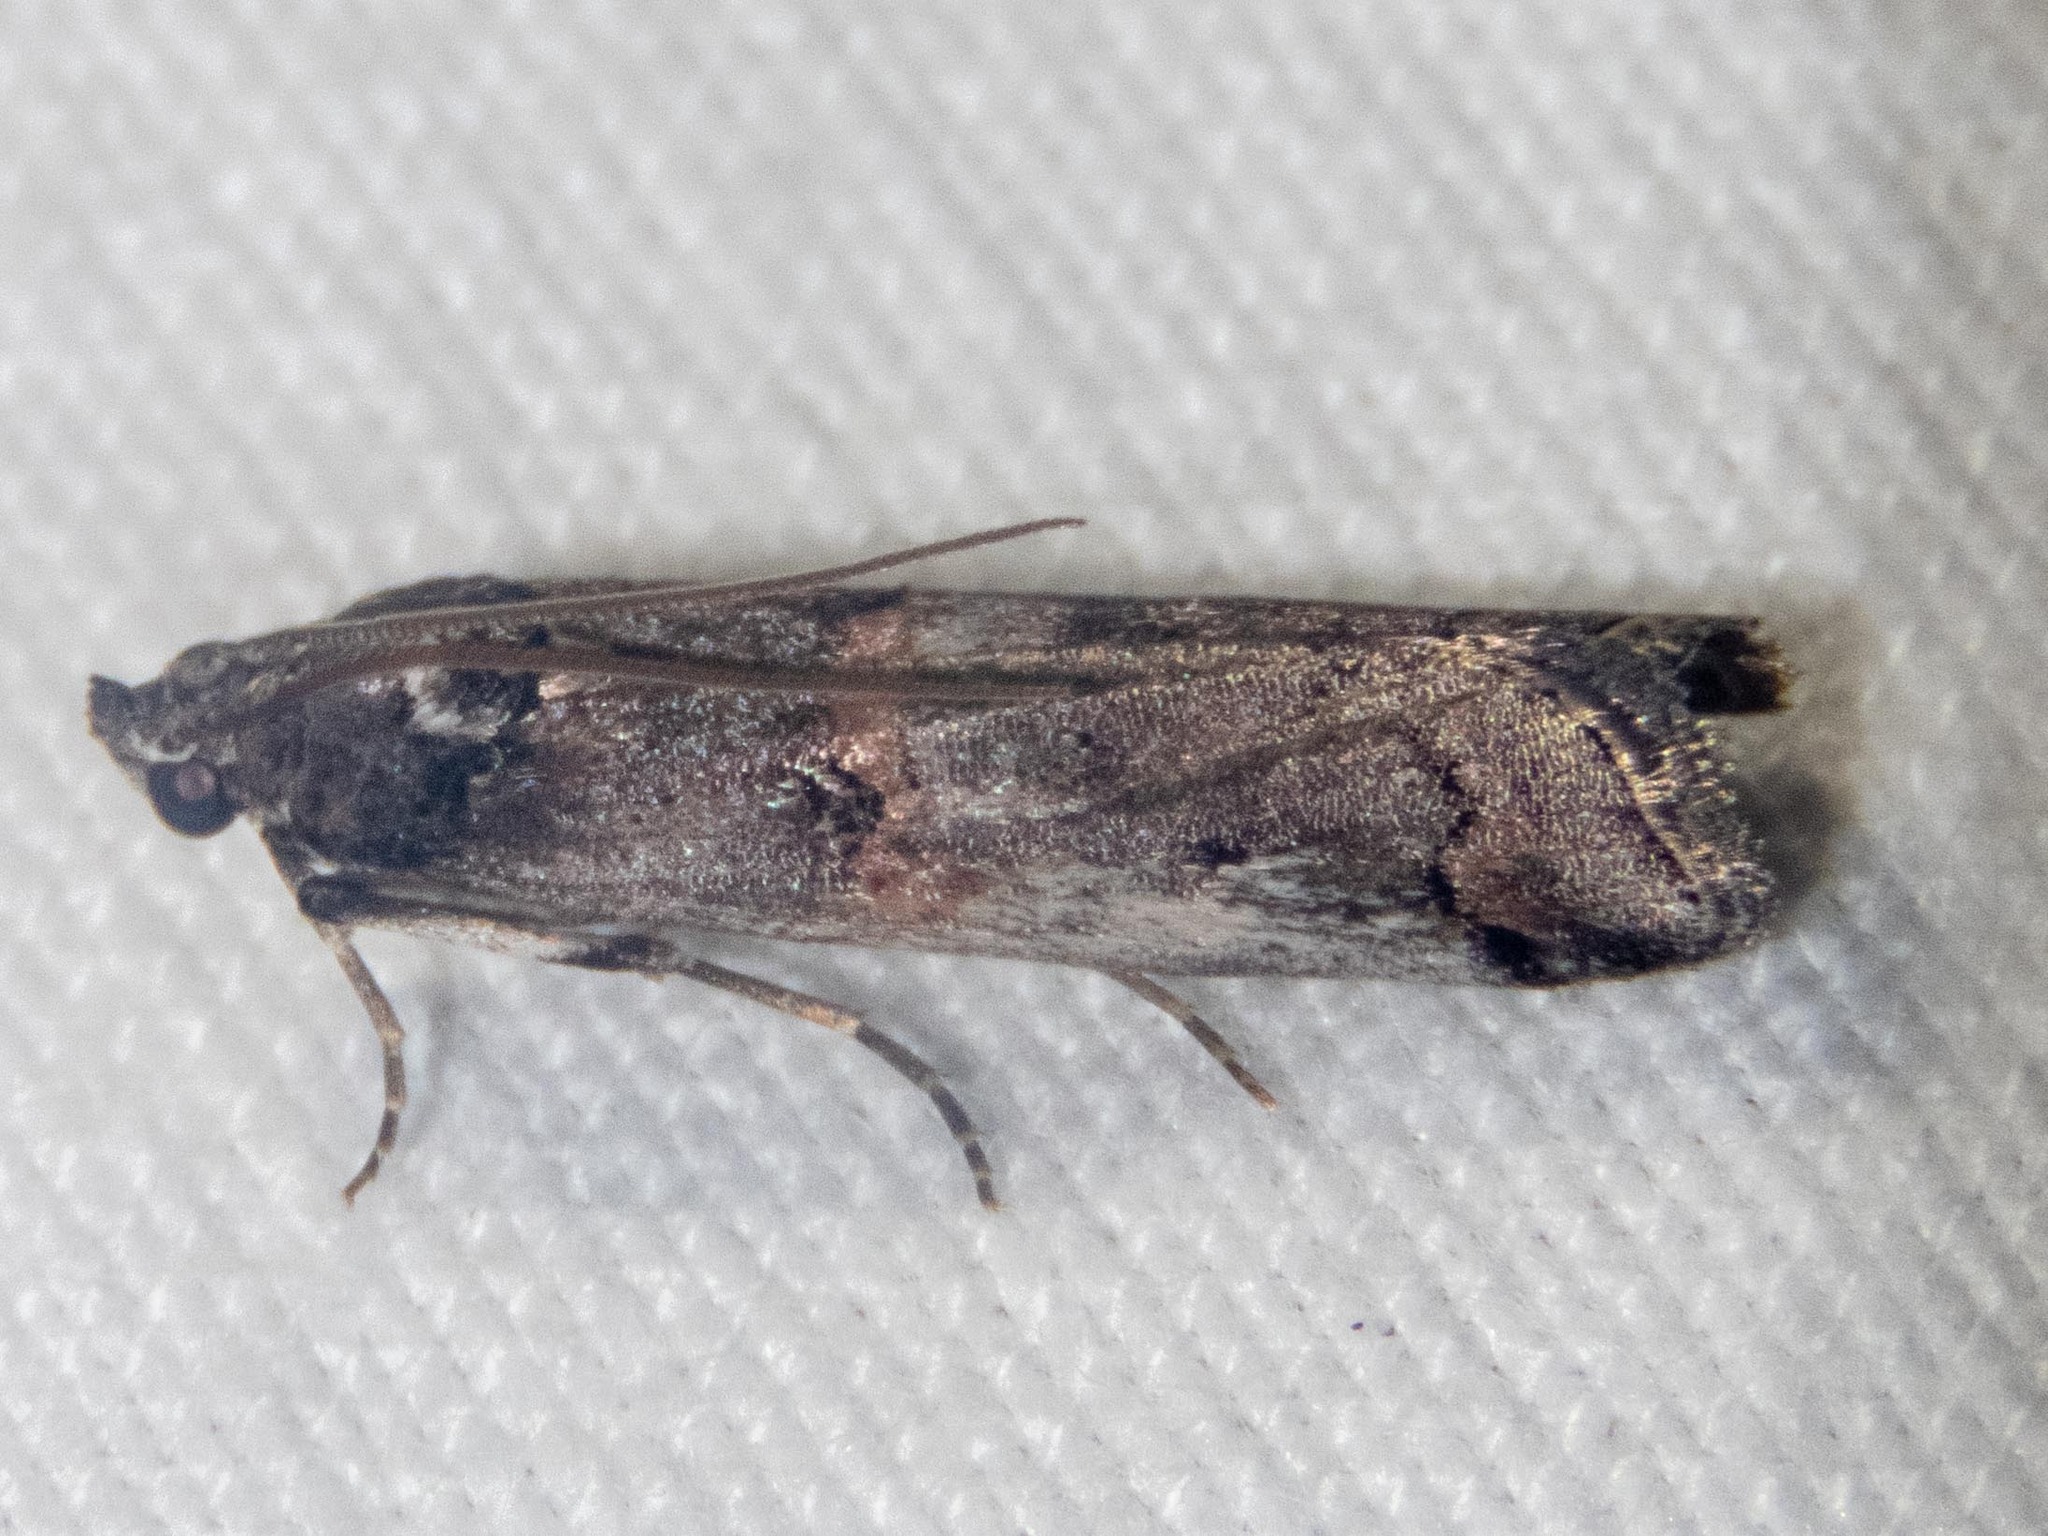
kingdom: Animalia
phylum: Arthropoda
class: Insecta
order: Lepidoptera
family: Pyralidae
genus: Pempelia
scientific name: Pempelia palumbella
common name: Heather knot-horn
